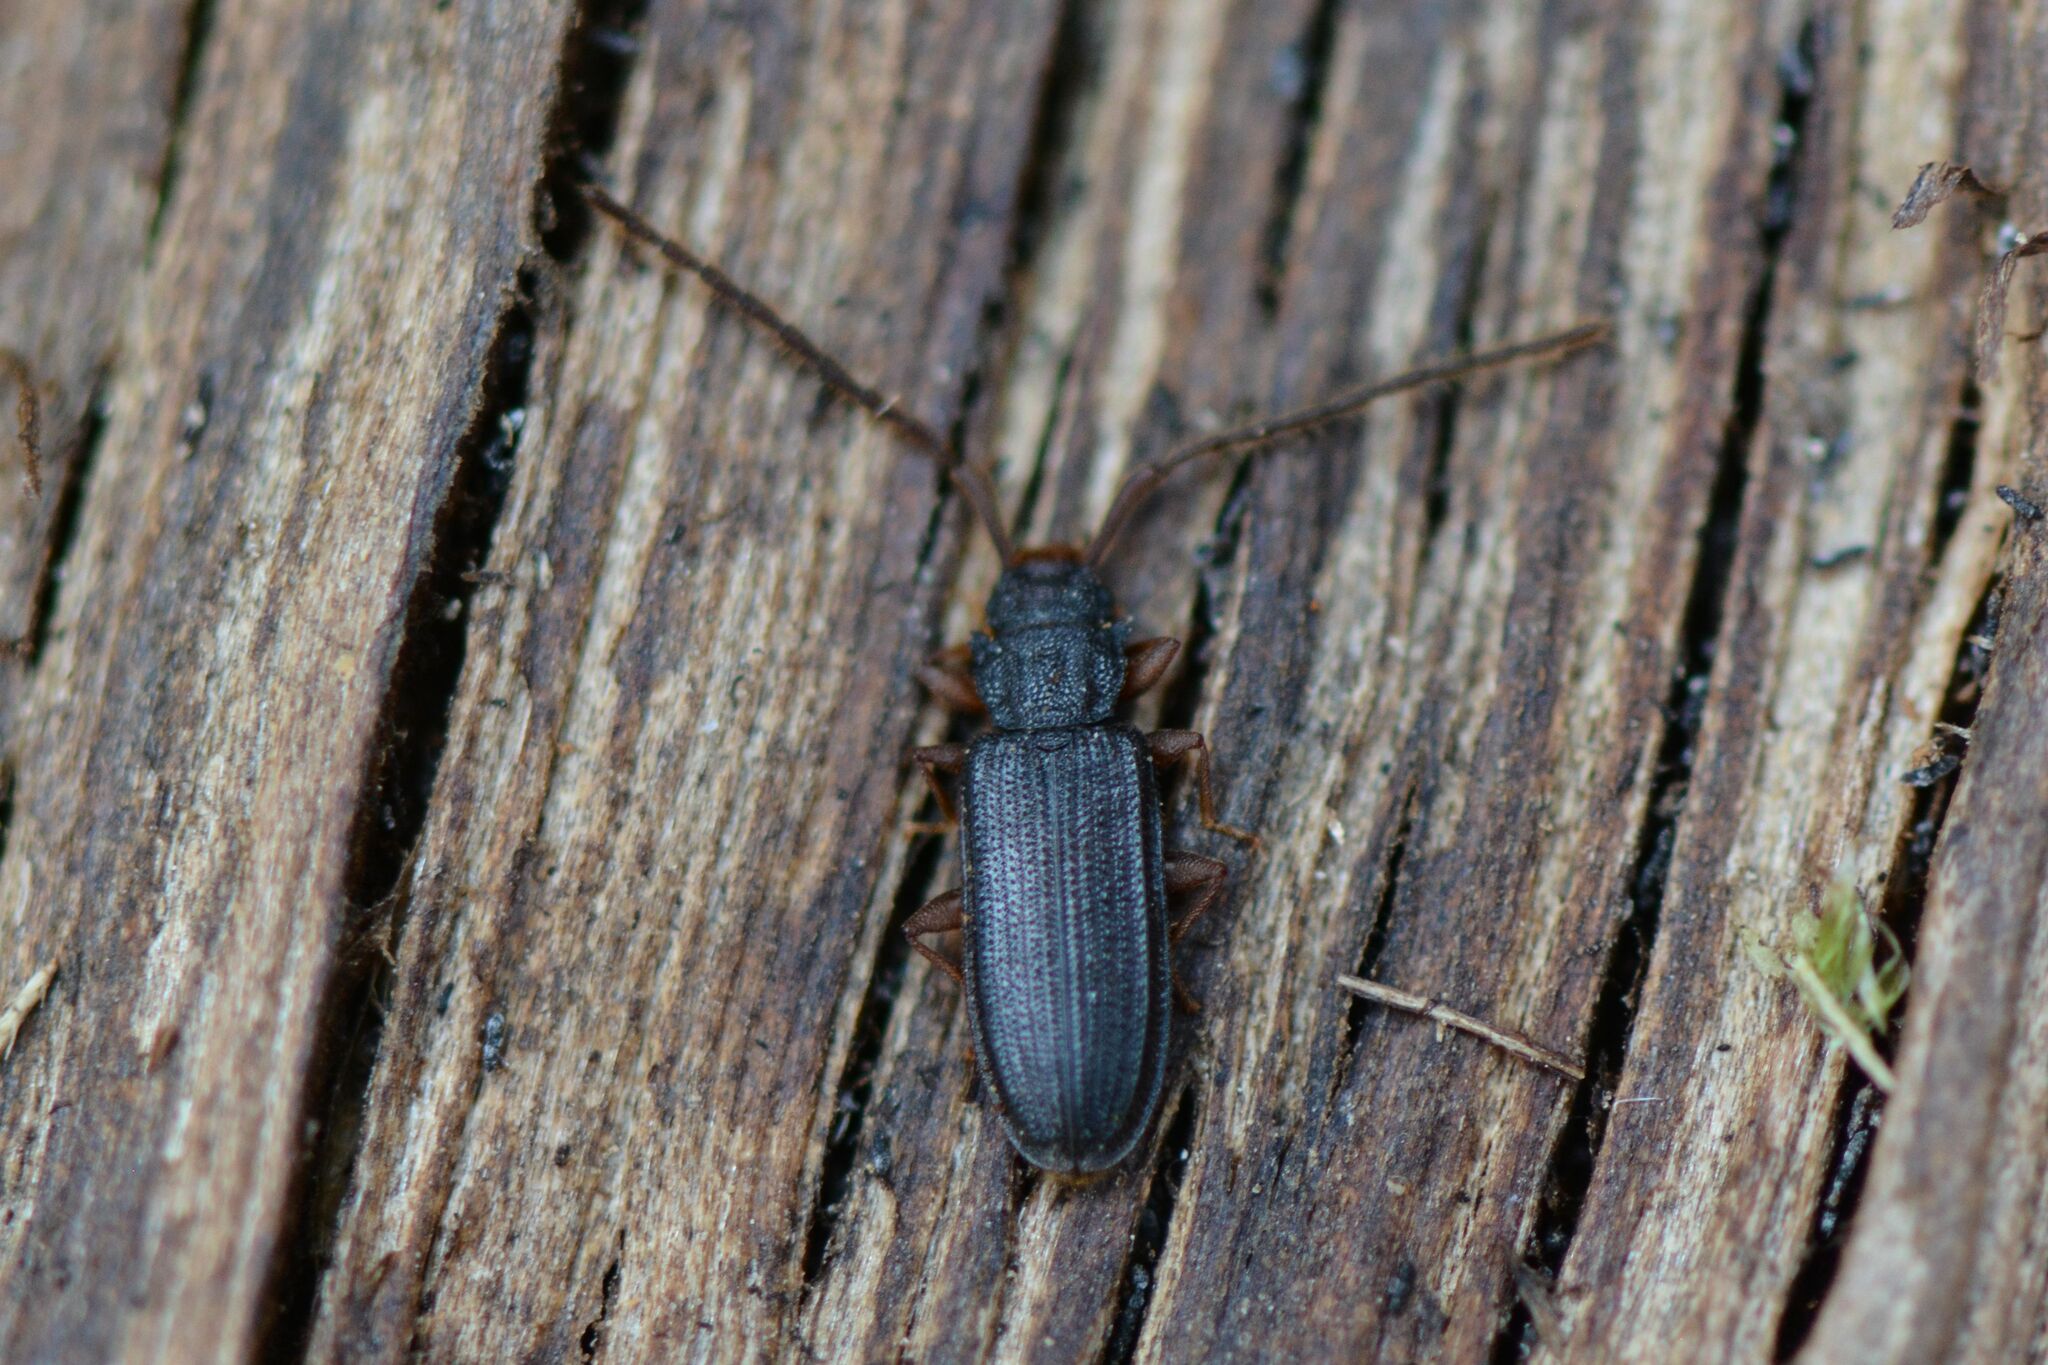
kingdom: Animalia
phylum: Arthropoda
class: Insecta
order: Coleoptera
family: Silvanidae
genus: Uleiota
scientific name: Uleiota planatus
